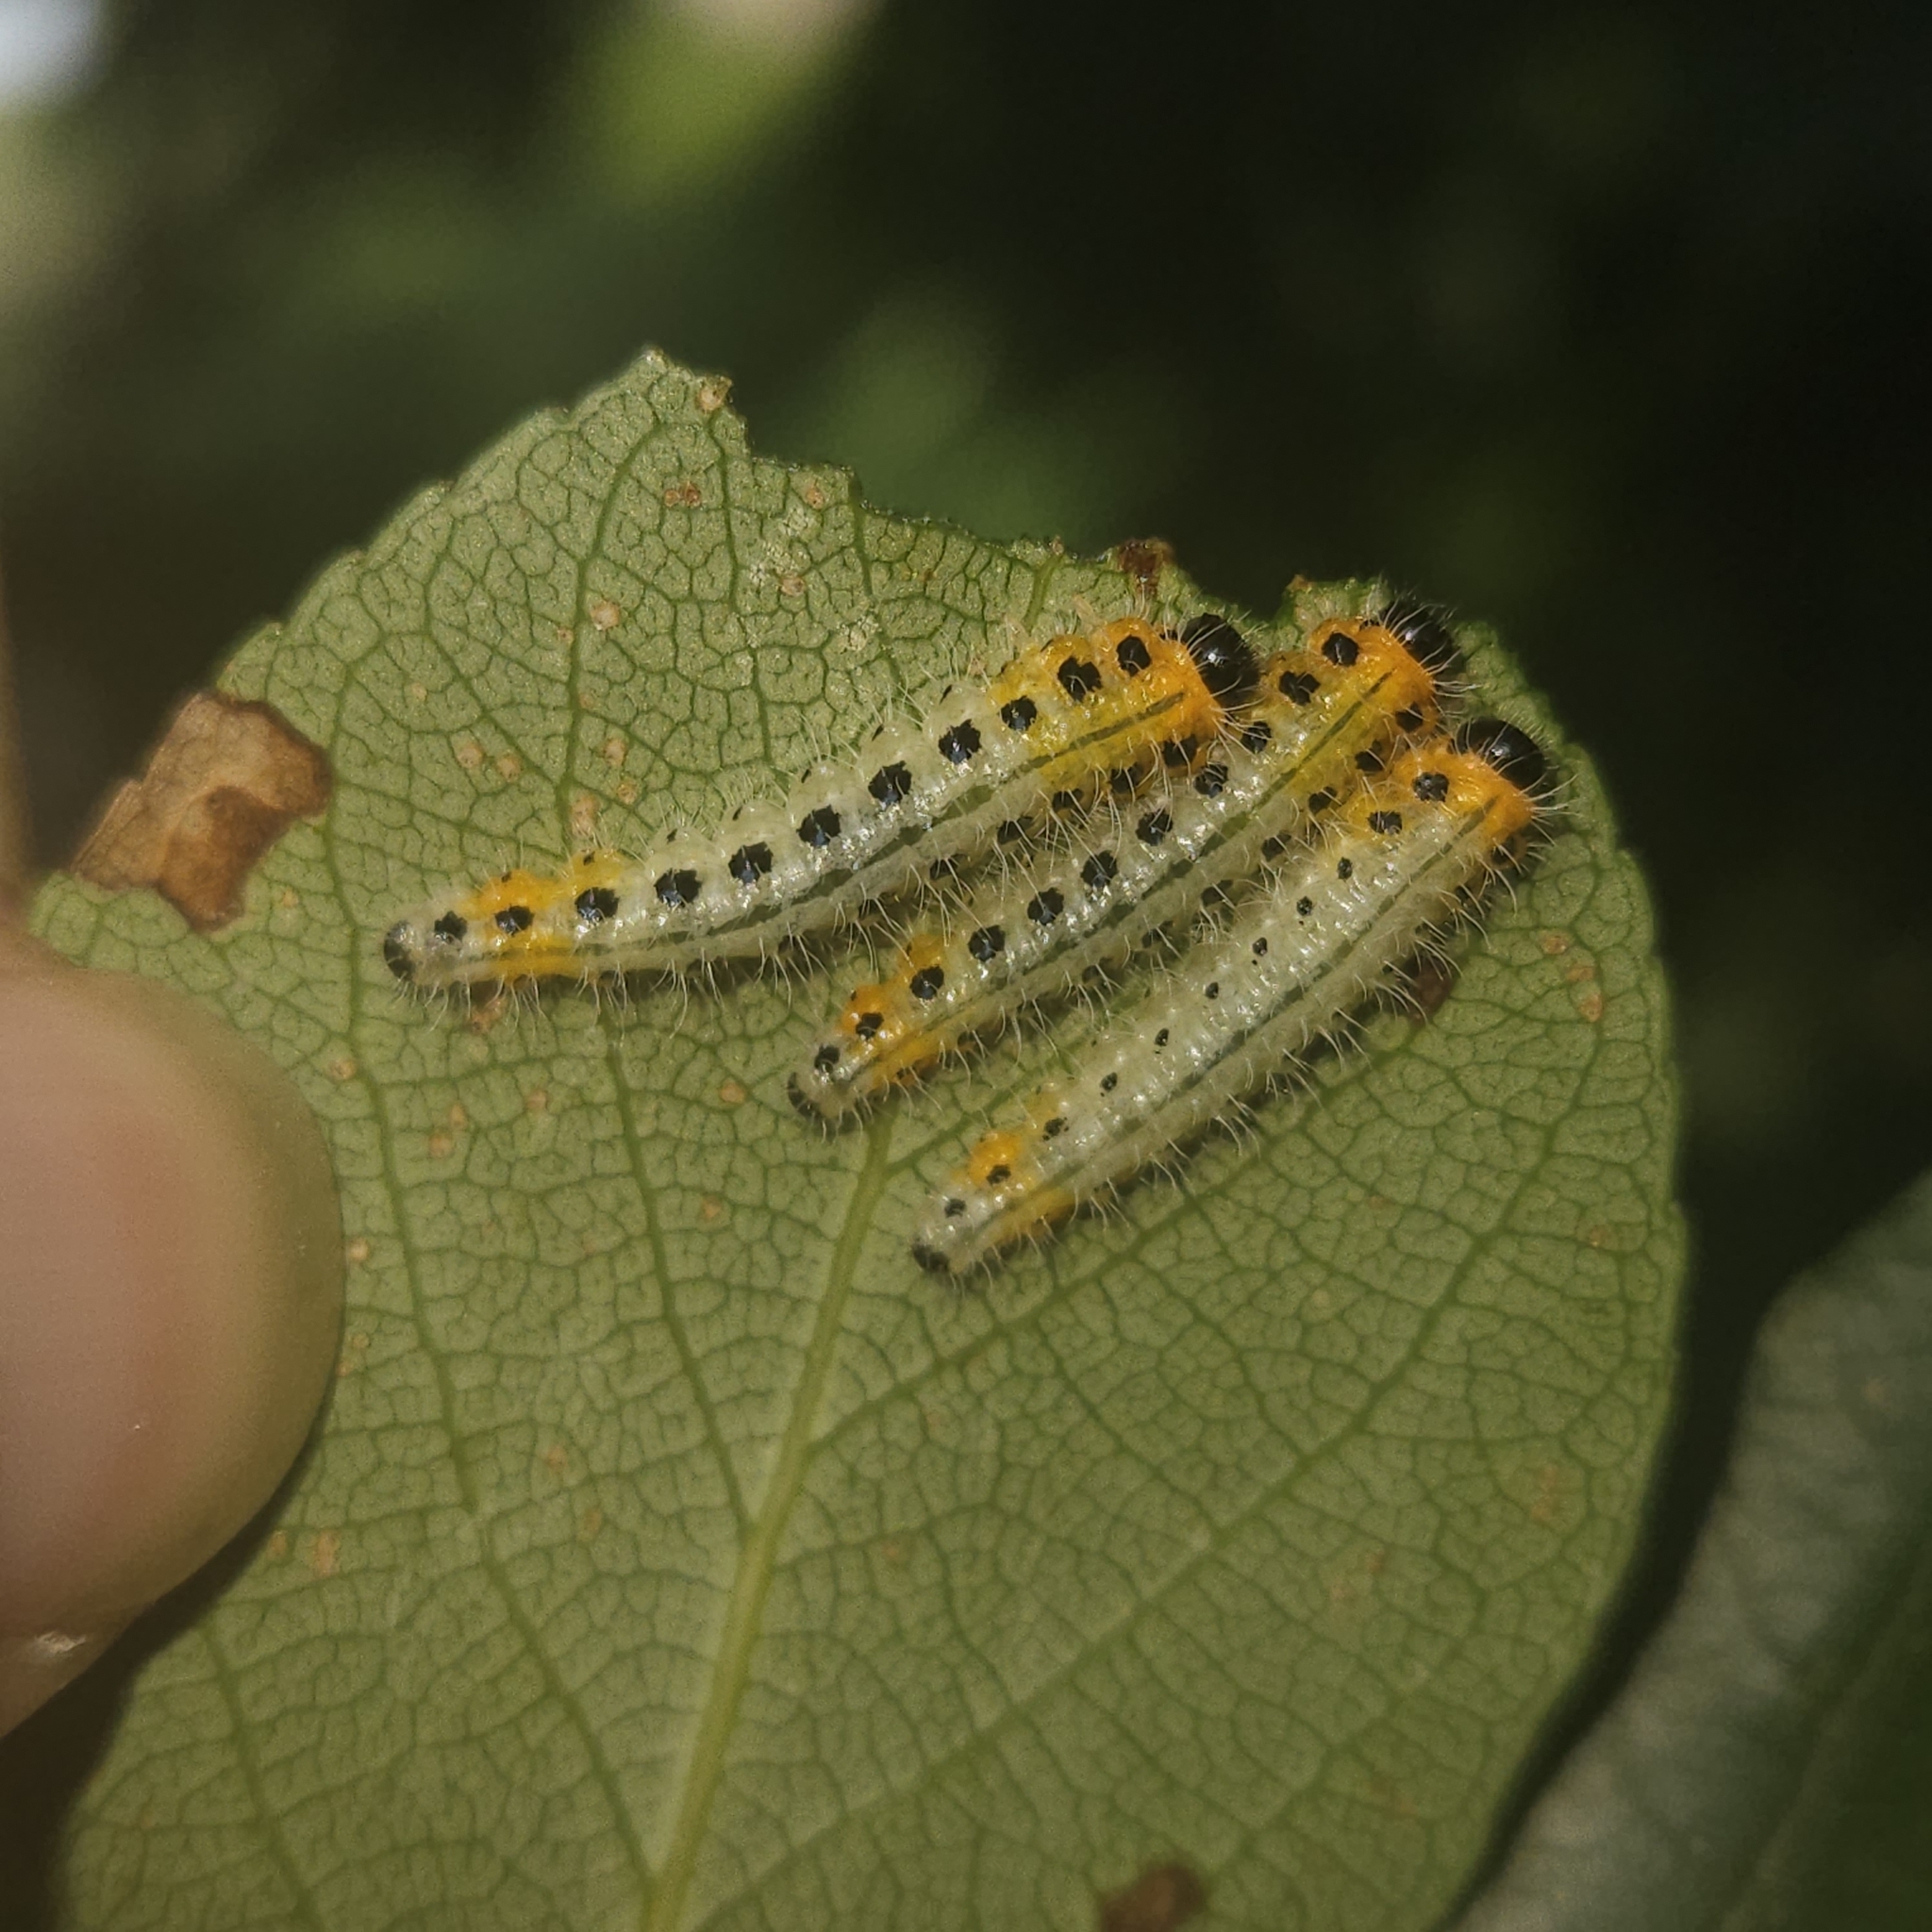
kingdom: Animalia
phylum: Arthropoda
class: Insecta
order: Hymenoptera
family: Tenthredinidae
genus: Cladius
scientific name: Cladius grandis
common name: Common sawfly
